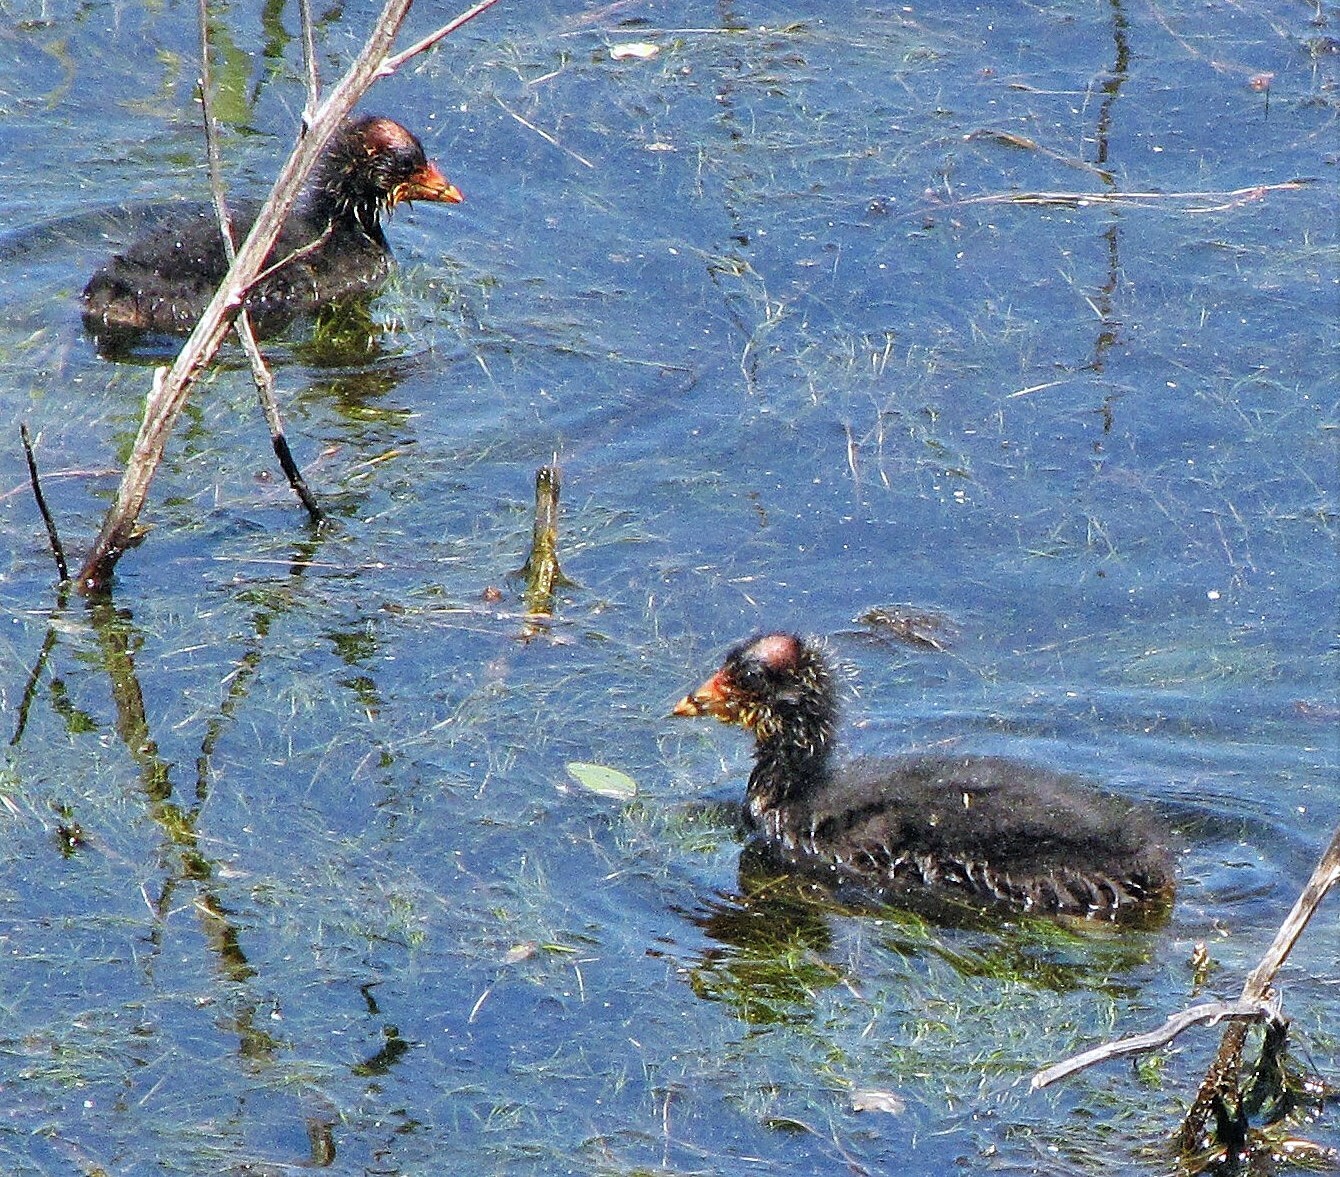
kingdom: Animalia
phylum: Chordata
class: Aves
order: Gruiformes
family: Rallidae
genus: Fulica
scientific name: Fulica leucoptera
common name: White-winged coot
